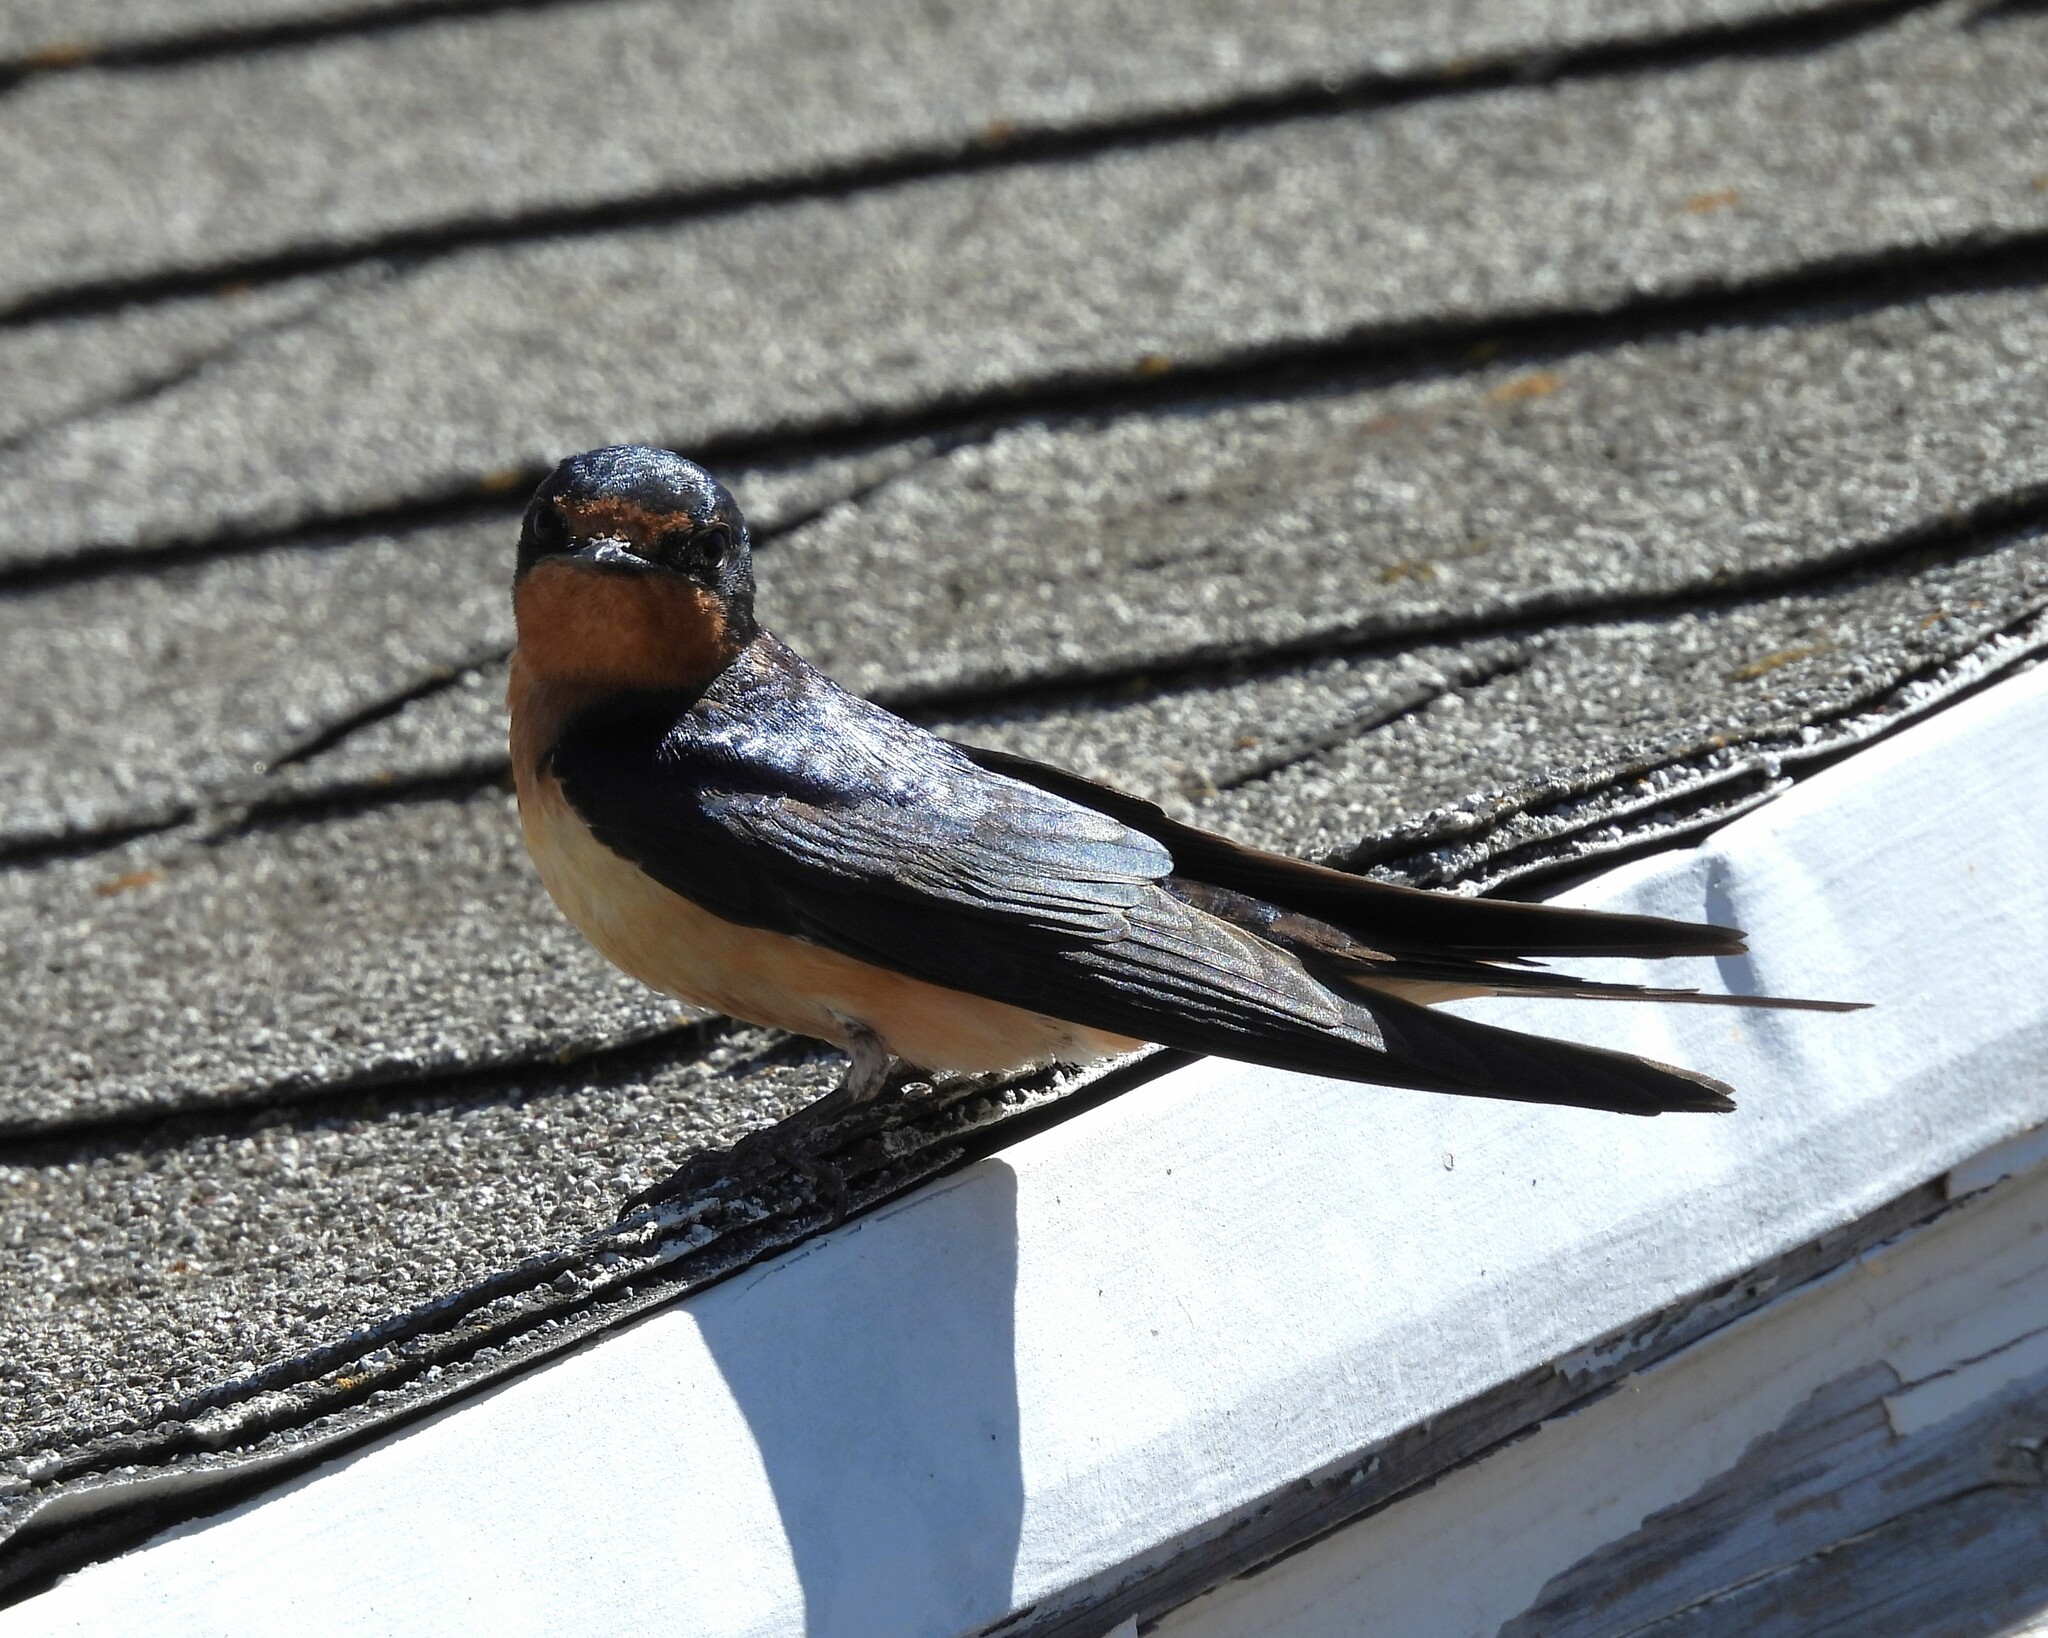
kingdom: Animalia
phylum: Chordata
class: Aves
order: Passeriformes
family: Hirundinidae
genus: Hirundo
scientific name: Hirundo rustica
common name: Barn swallow
